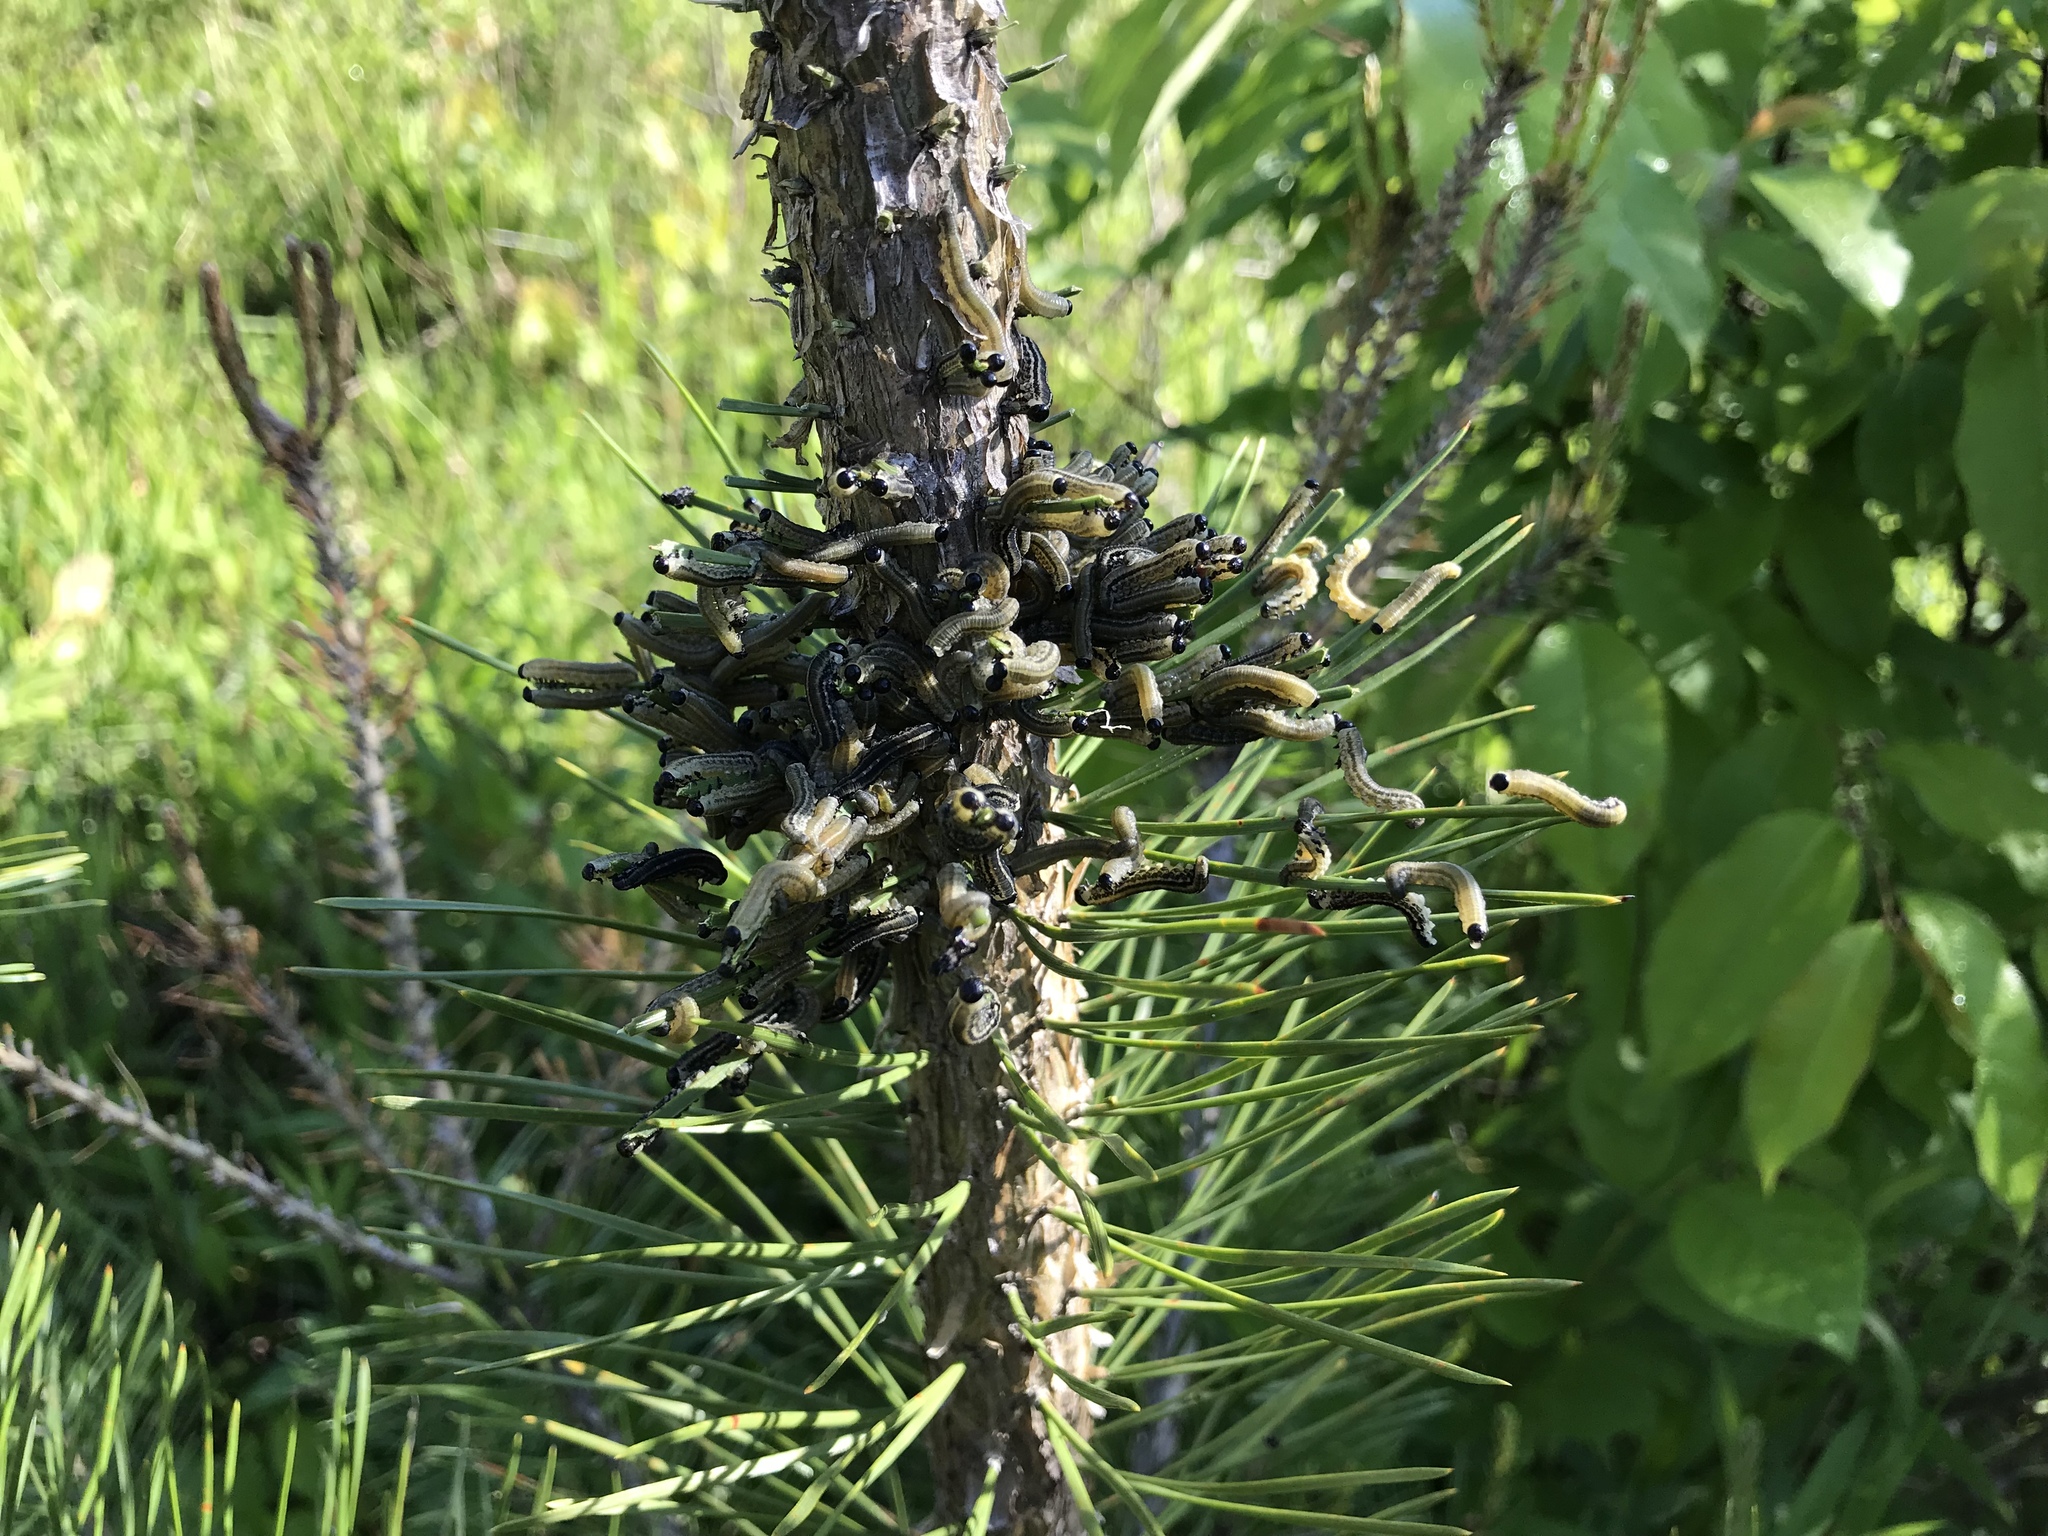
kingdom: Animalia
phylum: Arthropoda
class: Insecta
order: Hymenoptera
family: Diprionidae
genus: Neodiprion
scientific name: Neodiprion sertifer
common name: European pine sawfly
